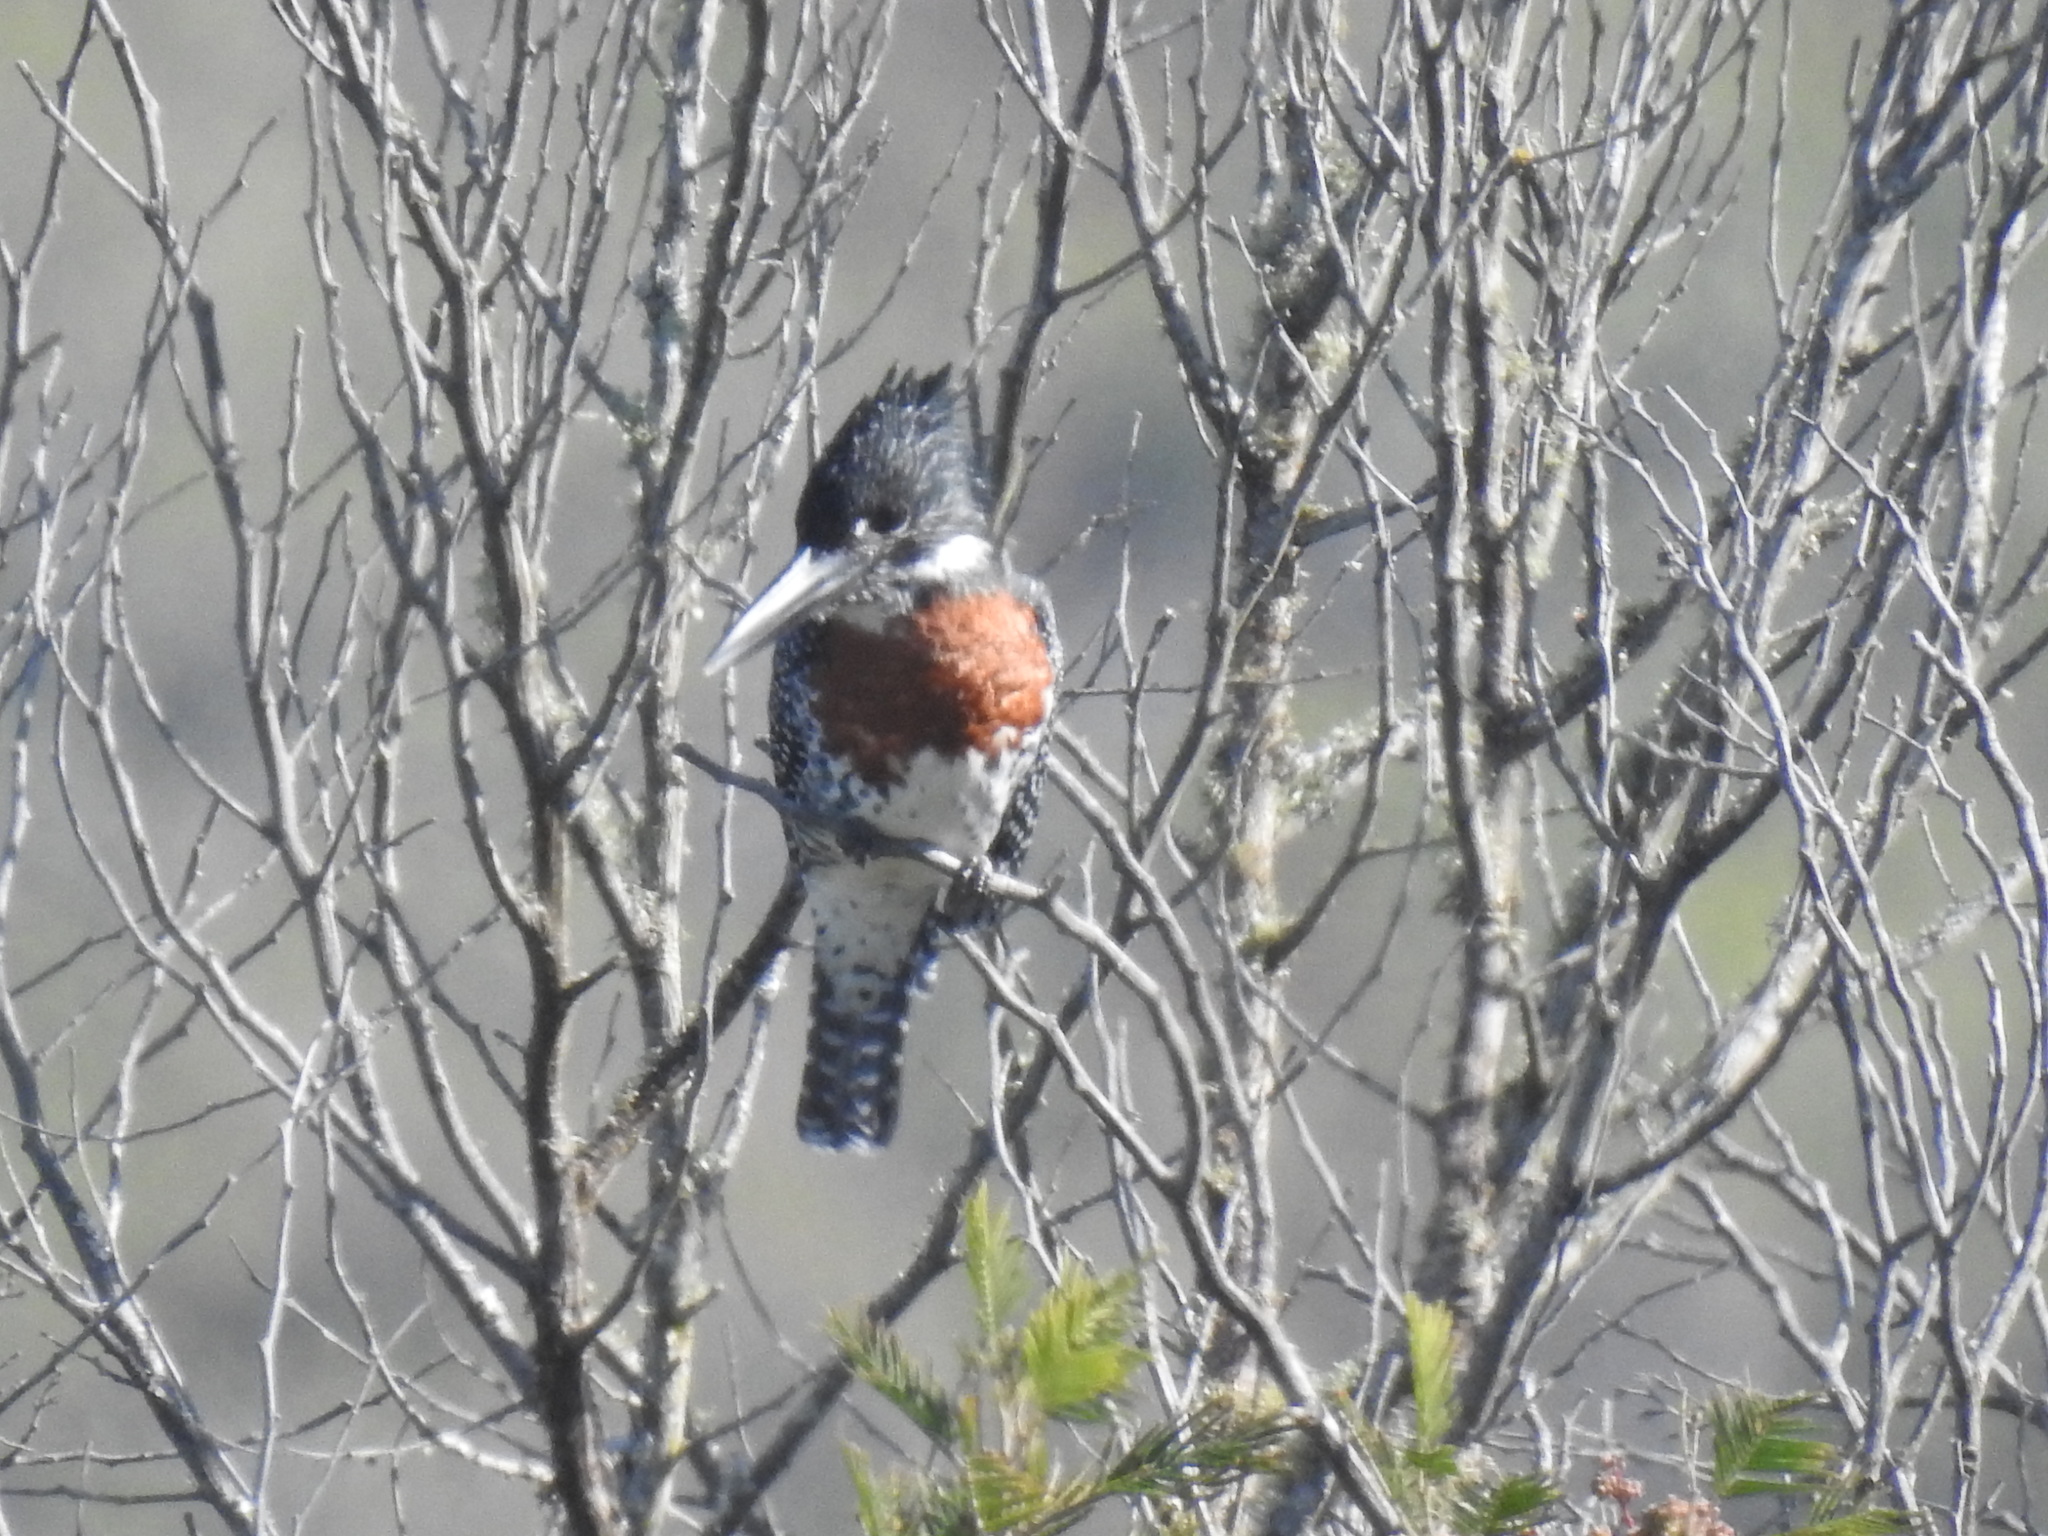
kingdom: Animalia
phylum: Chordata
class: Aves
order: Coraciiformes
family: Alcedinidae
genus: Megaceryle
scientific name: Megaceryle maxima
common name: Giant kingfisher
